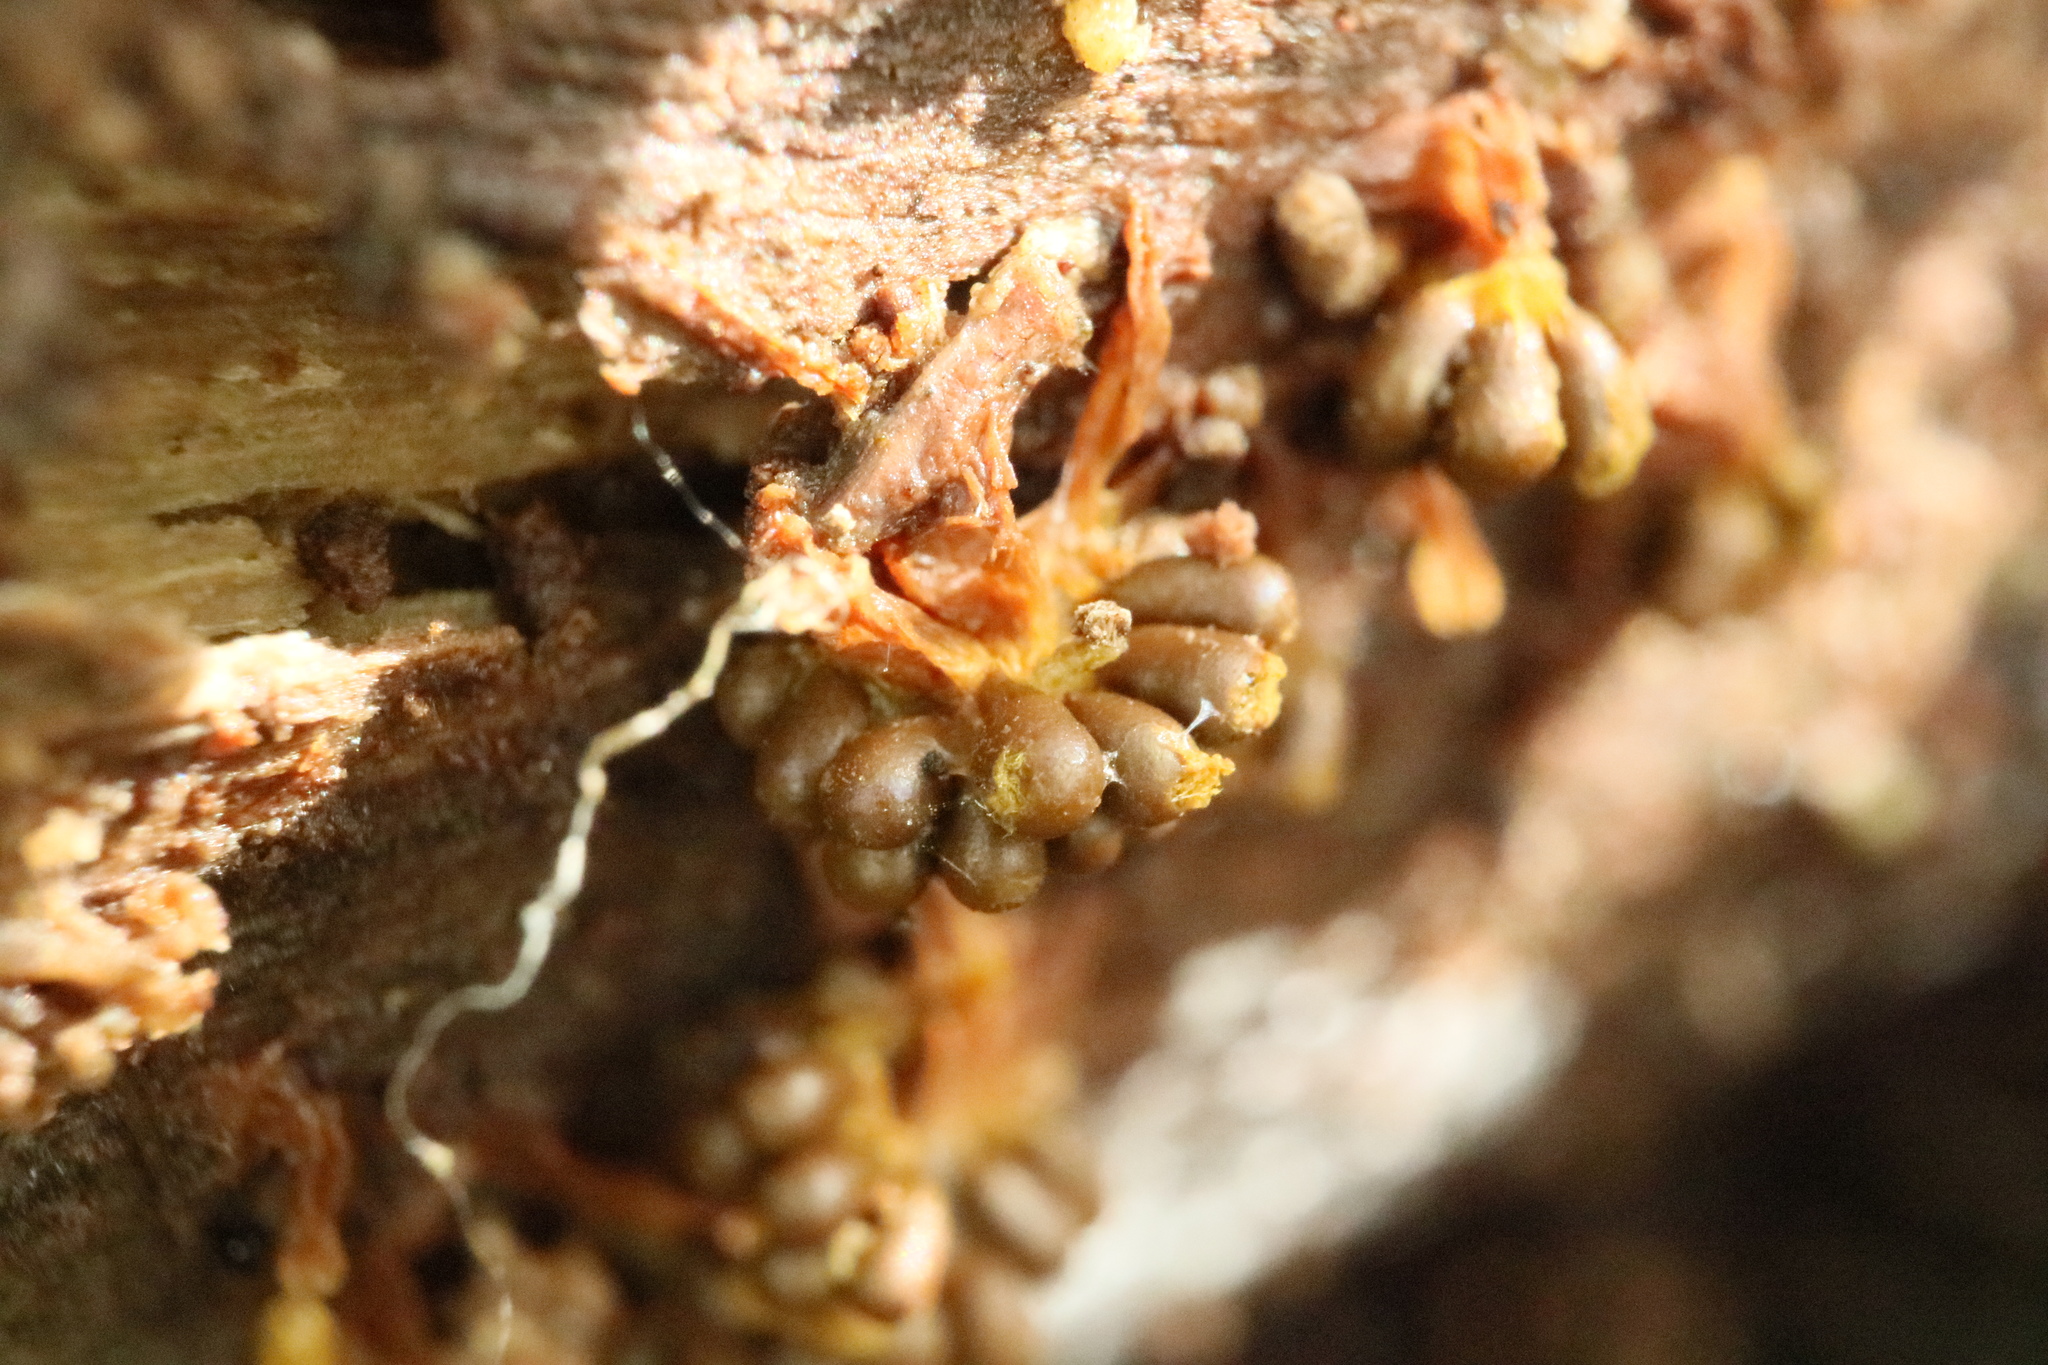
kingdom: Protozoa
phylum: Mycetozoa
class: Myxomycetes
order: Trichiales
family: Trichiaceae
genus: Oligonema
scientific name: Oligonema verrucosum
